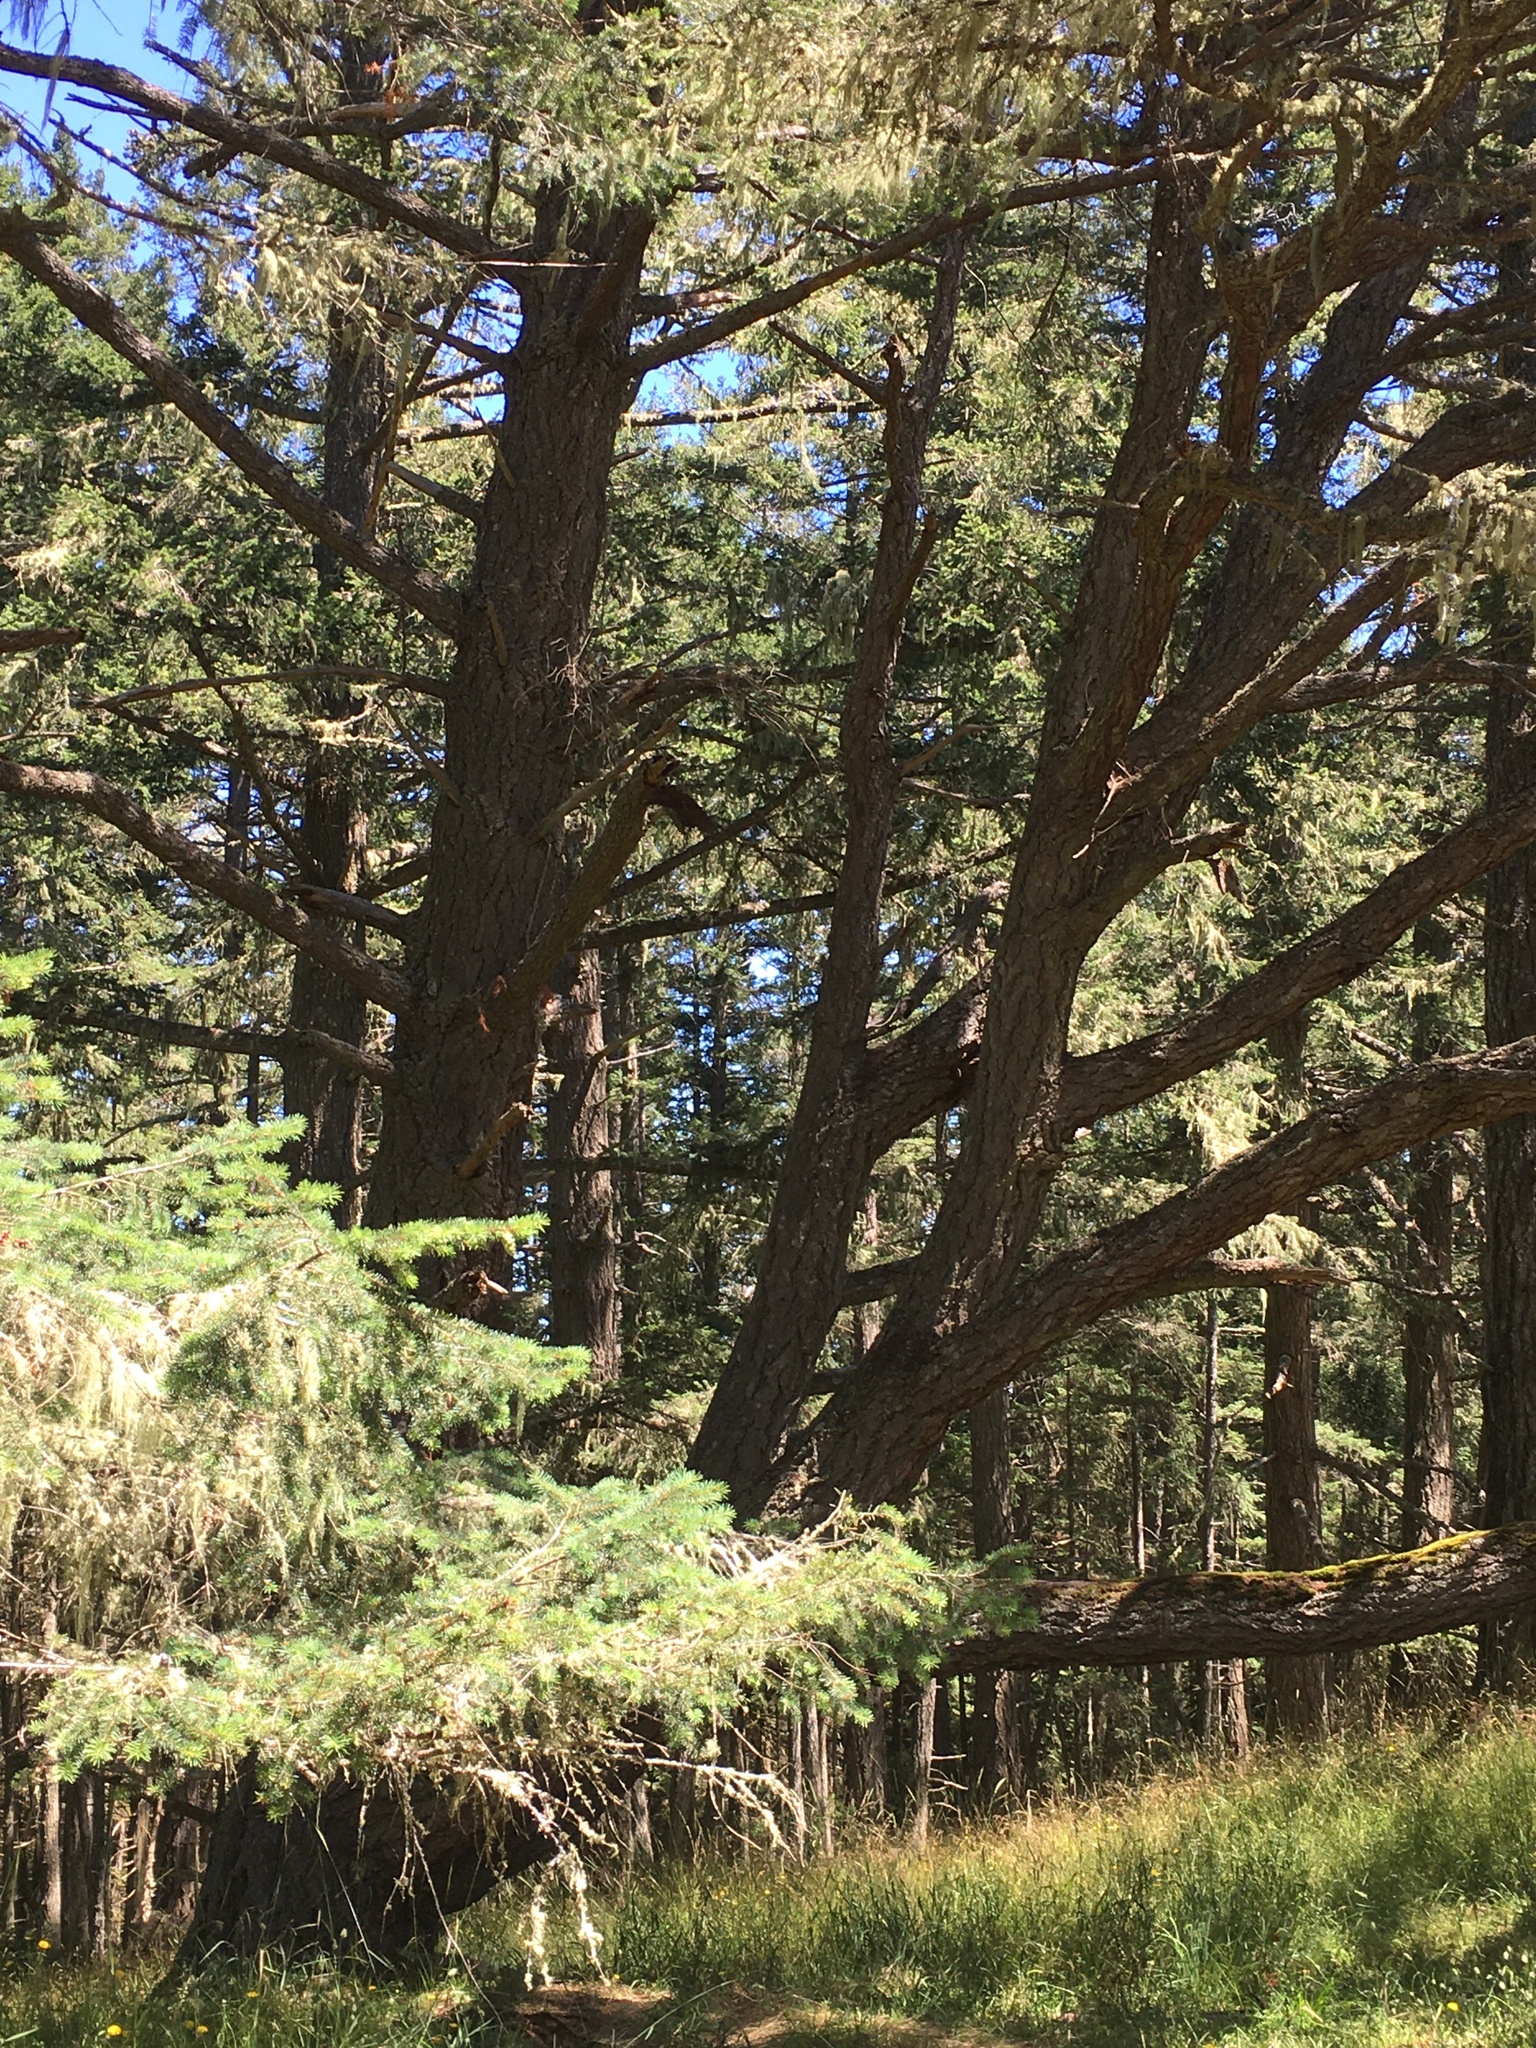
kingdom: Plantae
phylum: Tracheophyta
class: Pinopsida
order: Pinales
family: Pinaceae
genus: Pseudotsuga
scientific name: Pseudotsuga menziesii
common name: Douglas fir
